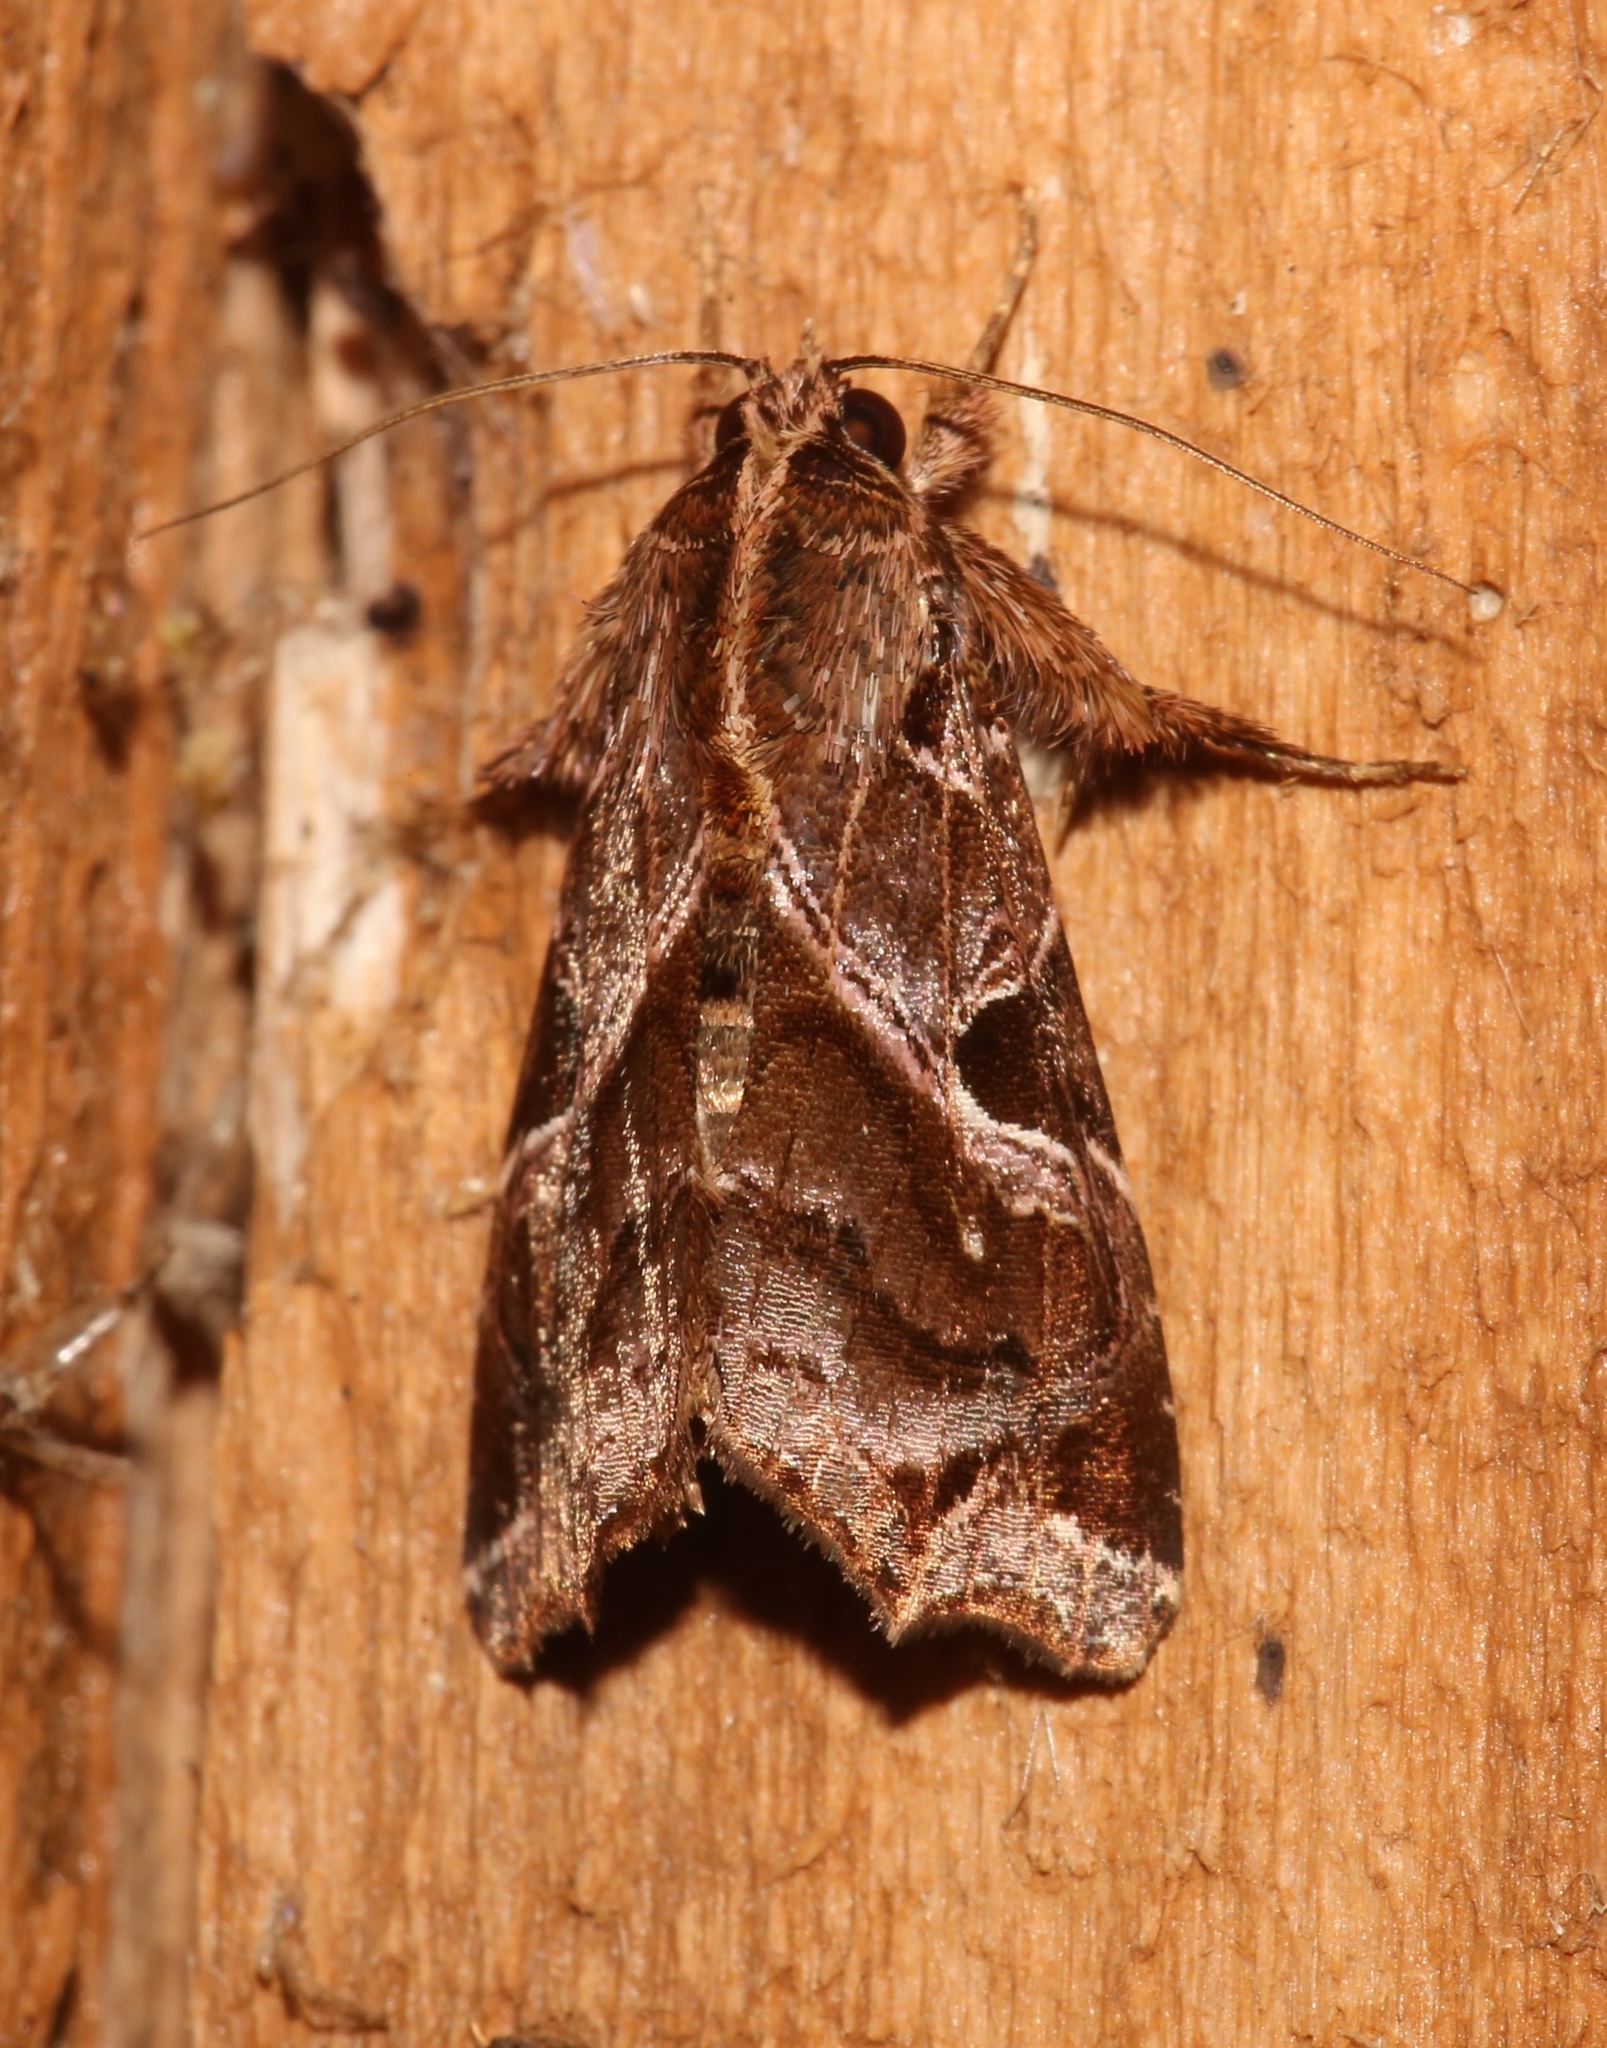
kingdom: Animalia
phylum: Arthropoda
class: Insecta
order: Lepidoptera
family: Noctuidae
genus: Callopistria
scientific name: Callopistria floridensis
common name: Florida fern moth
